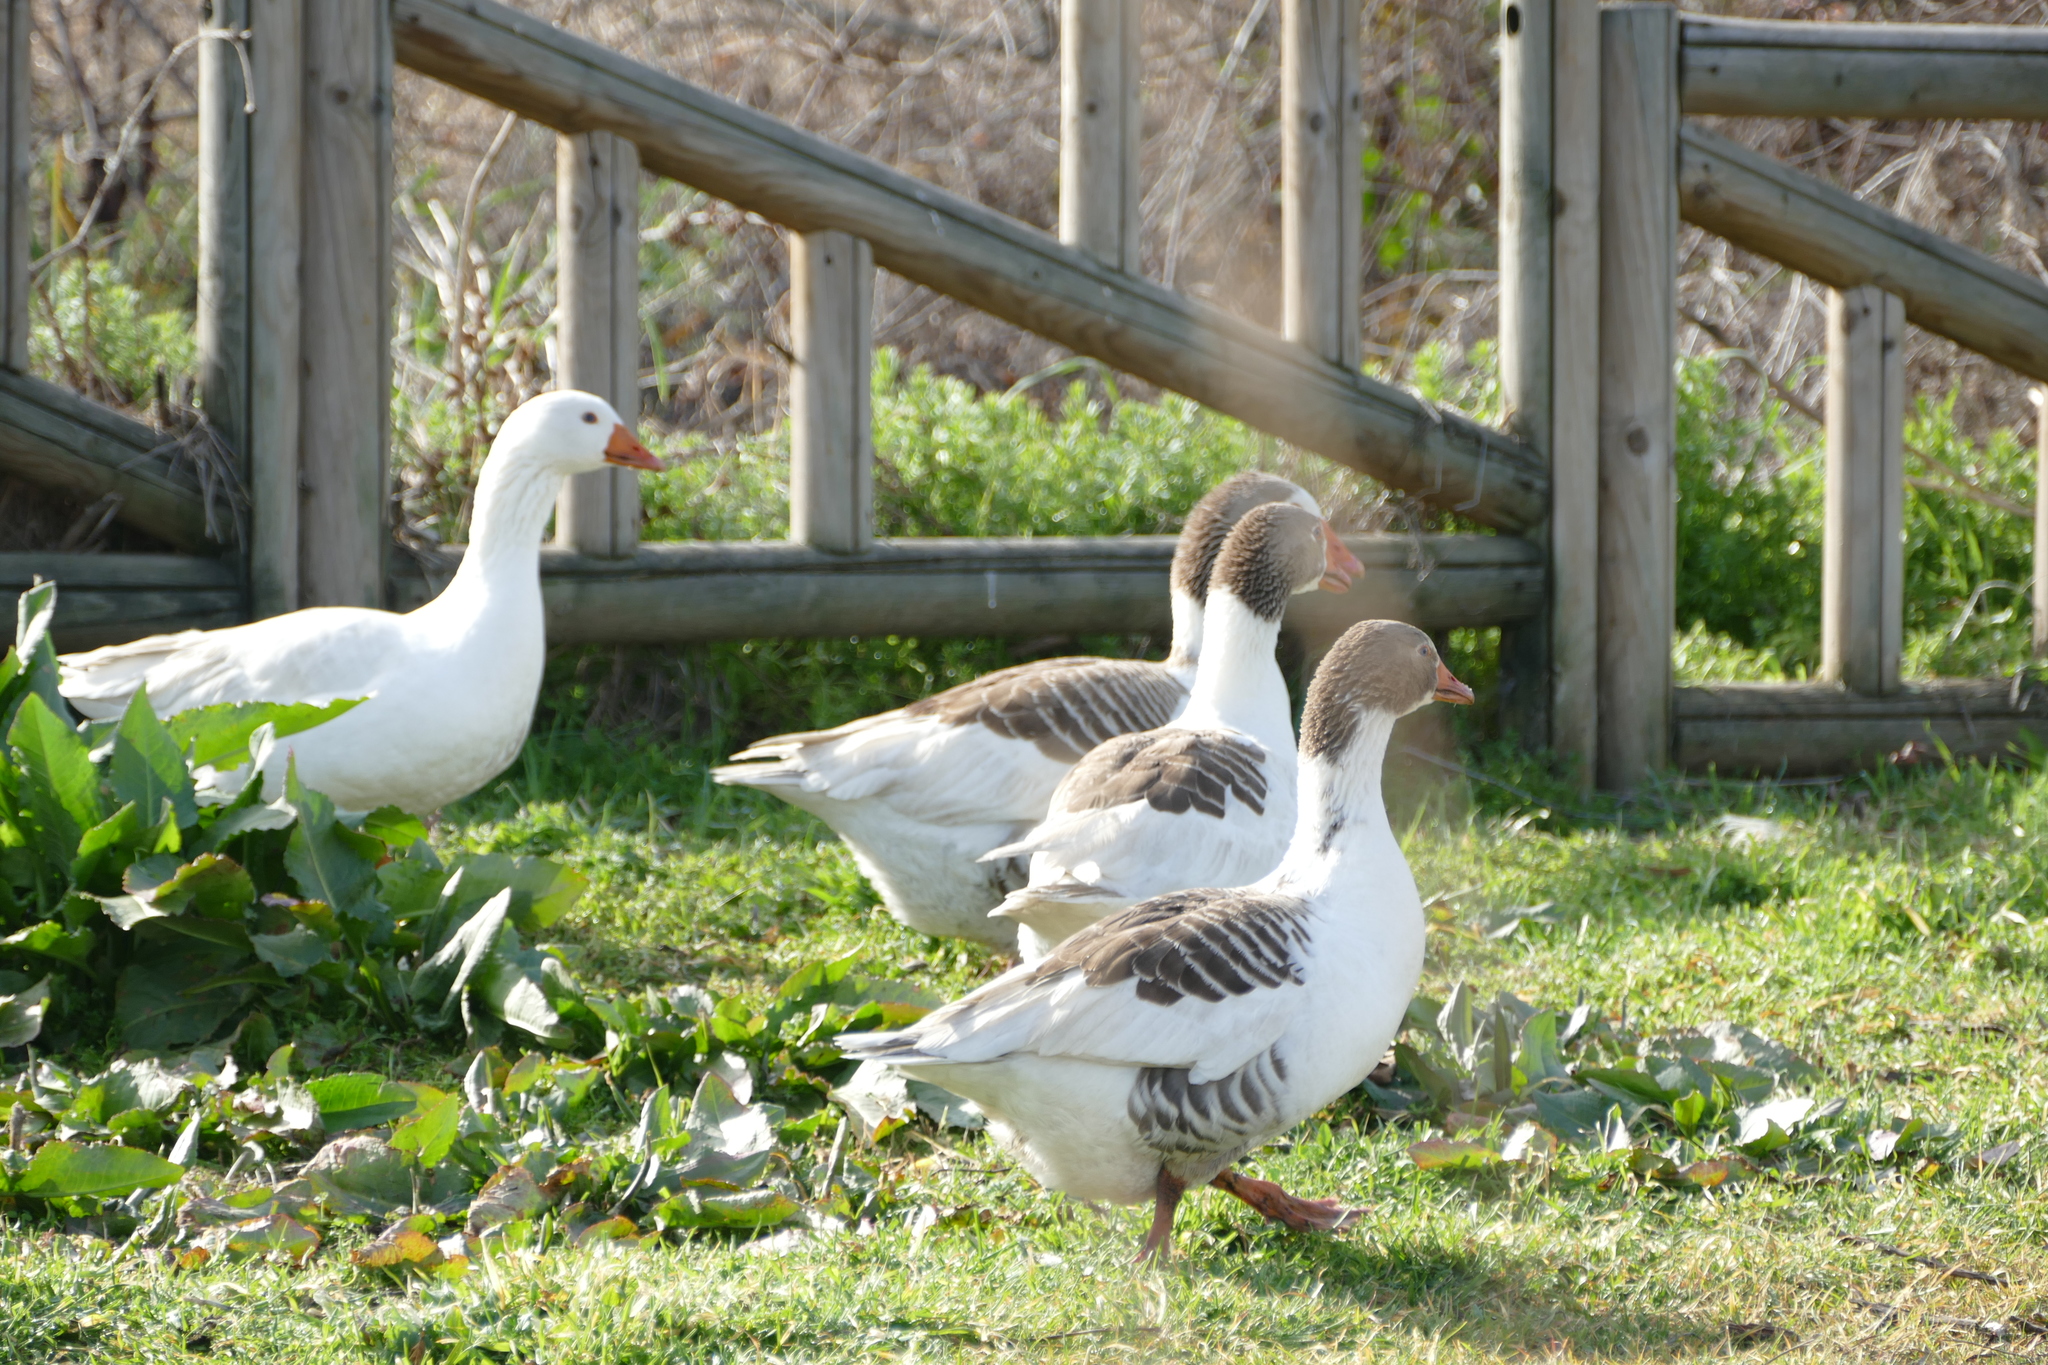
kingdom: Animalia
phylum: Chordata
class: Aves
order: Anseriformes
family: Anatidae
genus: Anser
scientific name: Anser anser
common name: Greylag goose
